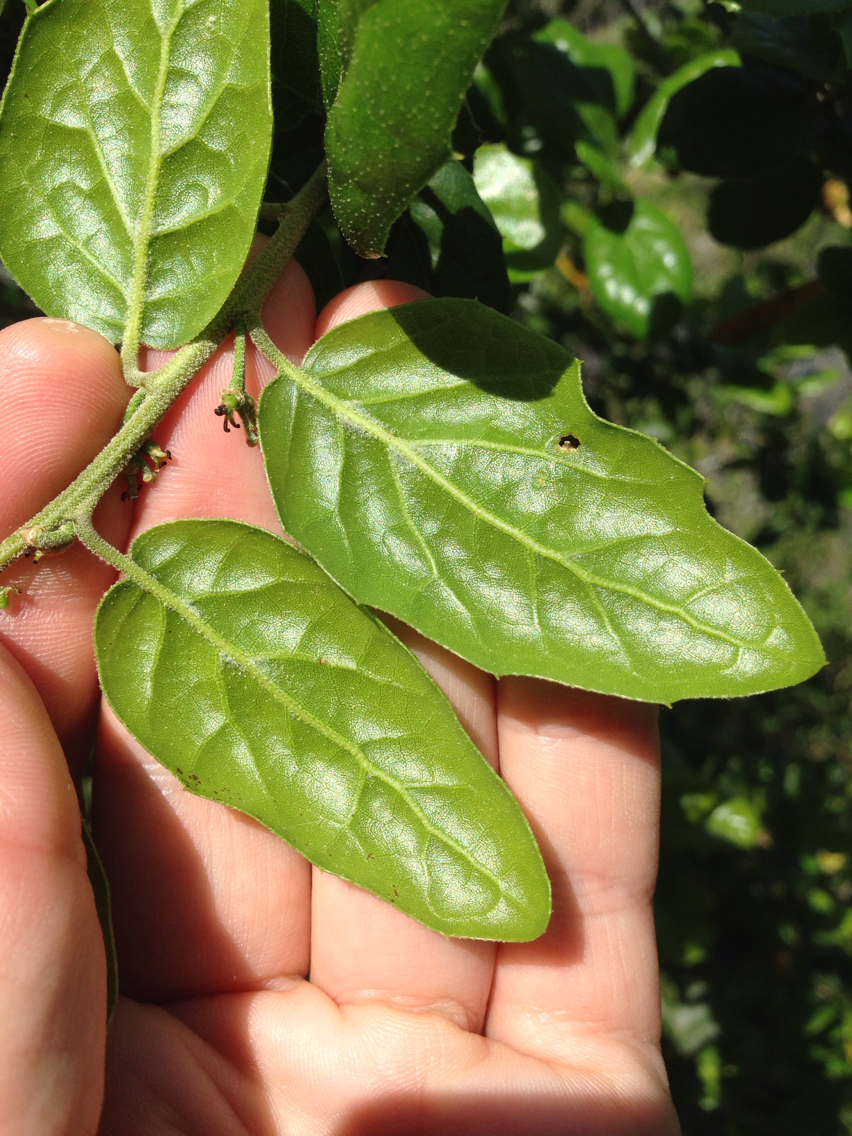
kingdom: Plantae
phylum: Tracheophyta
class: Magnoliopsida
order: Fagales
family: Fagaceae
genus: Quercus
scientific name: Quercus agrifolia
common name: California live oak
